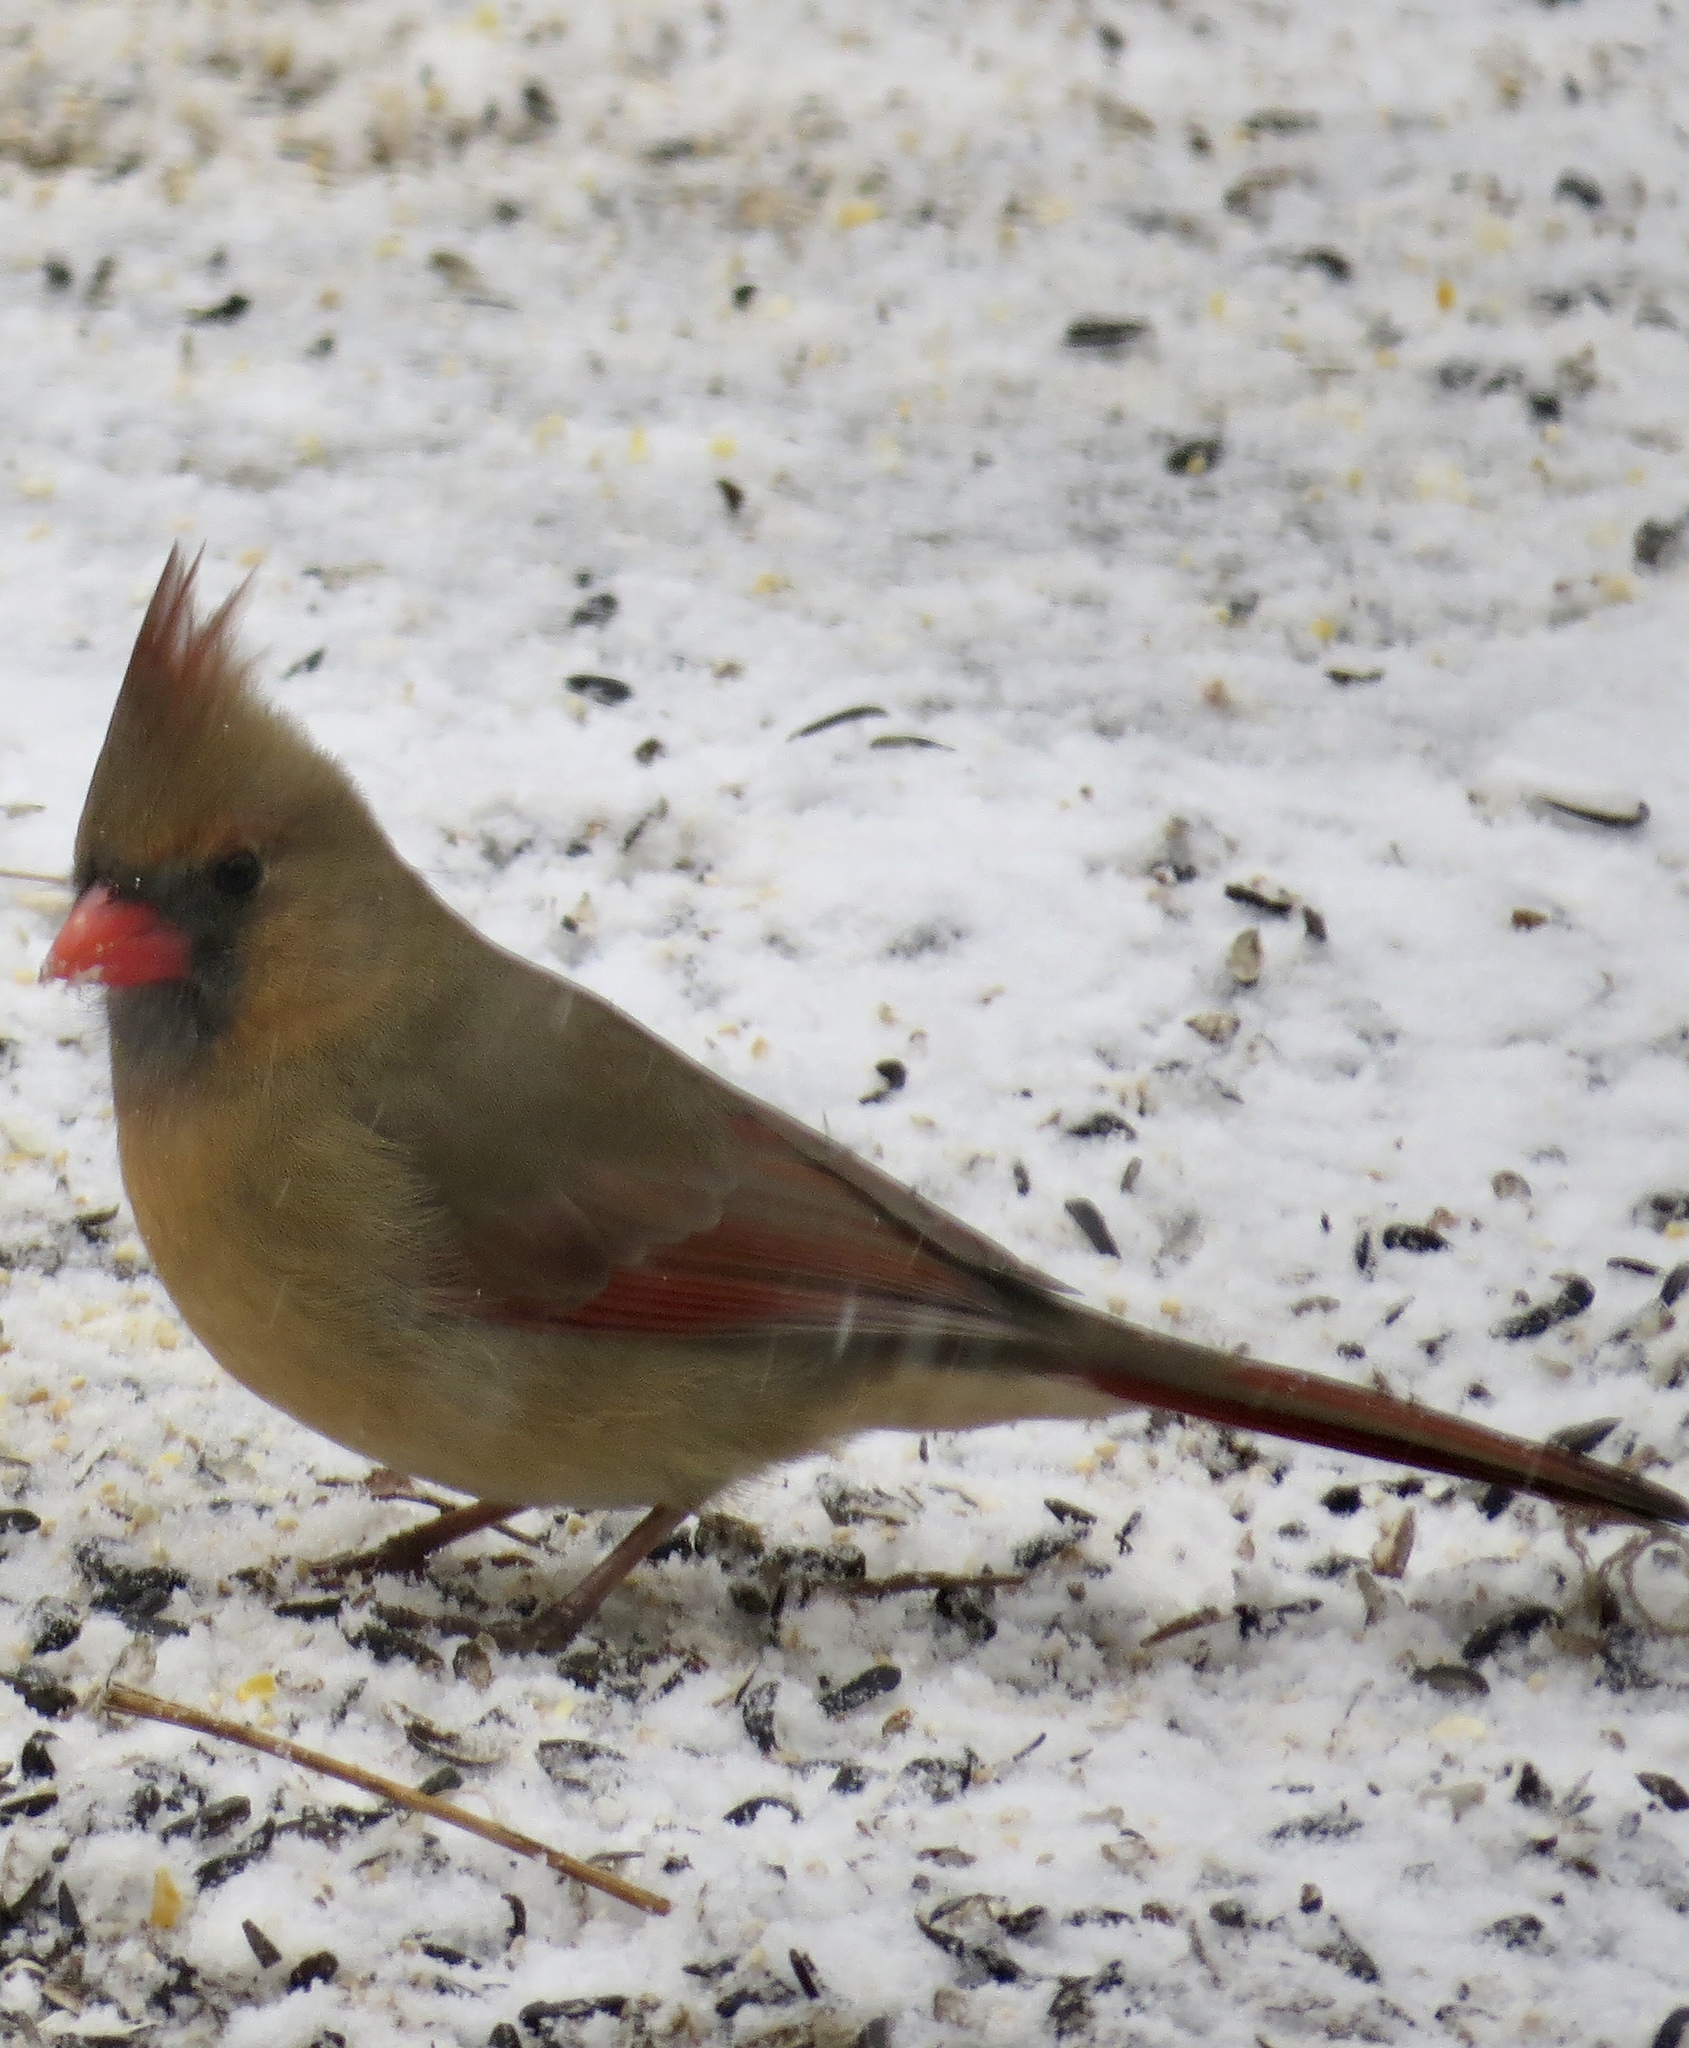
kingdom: Animalia
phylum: Chordata
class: Aves
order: Passeriformes
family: Cardinalidae
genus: Cardinalis
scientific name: Cardinalis cardinalis
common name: Northern cardinal
